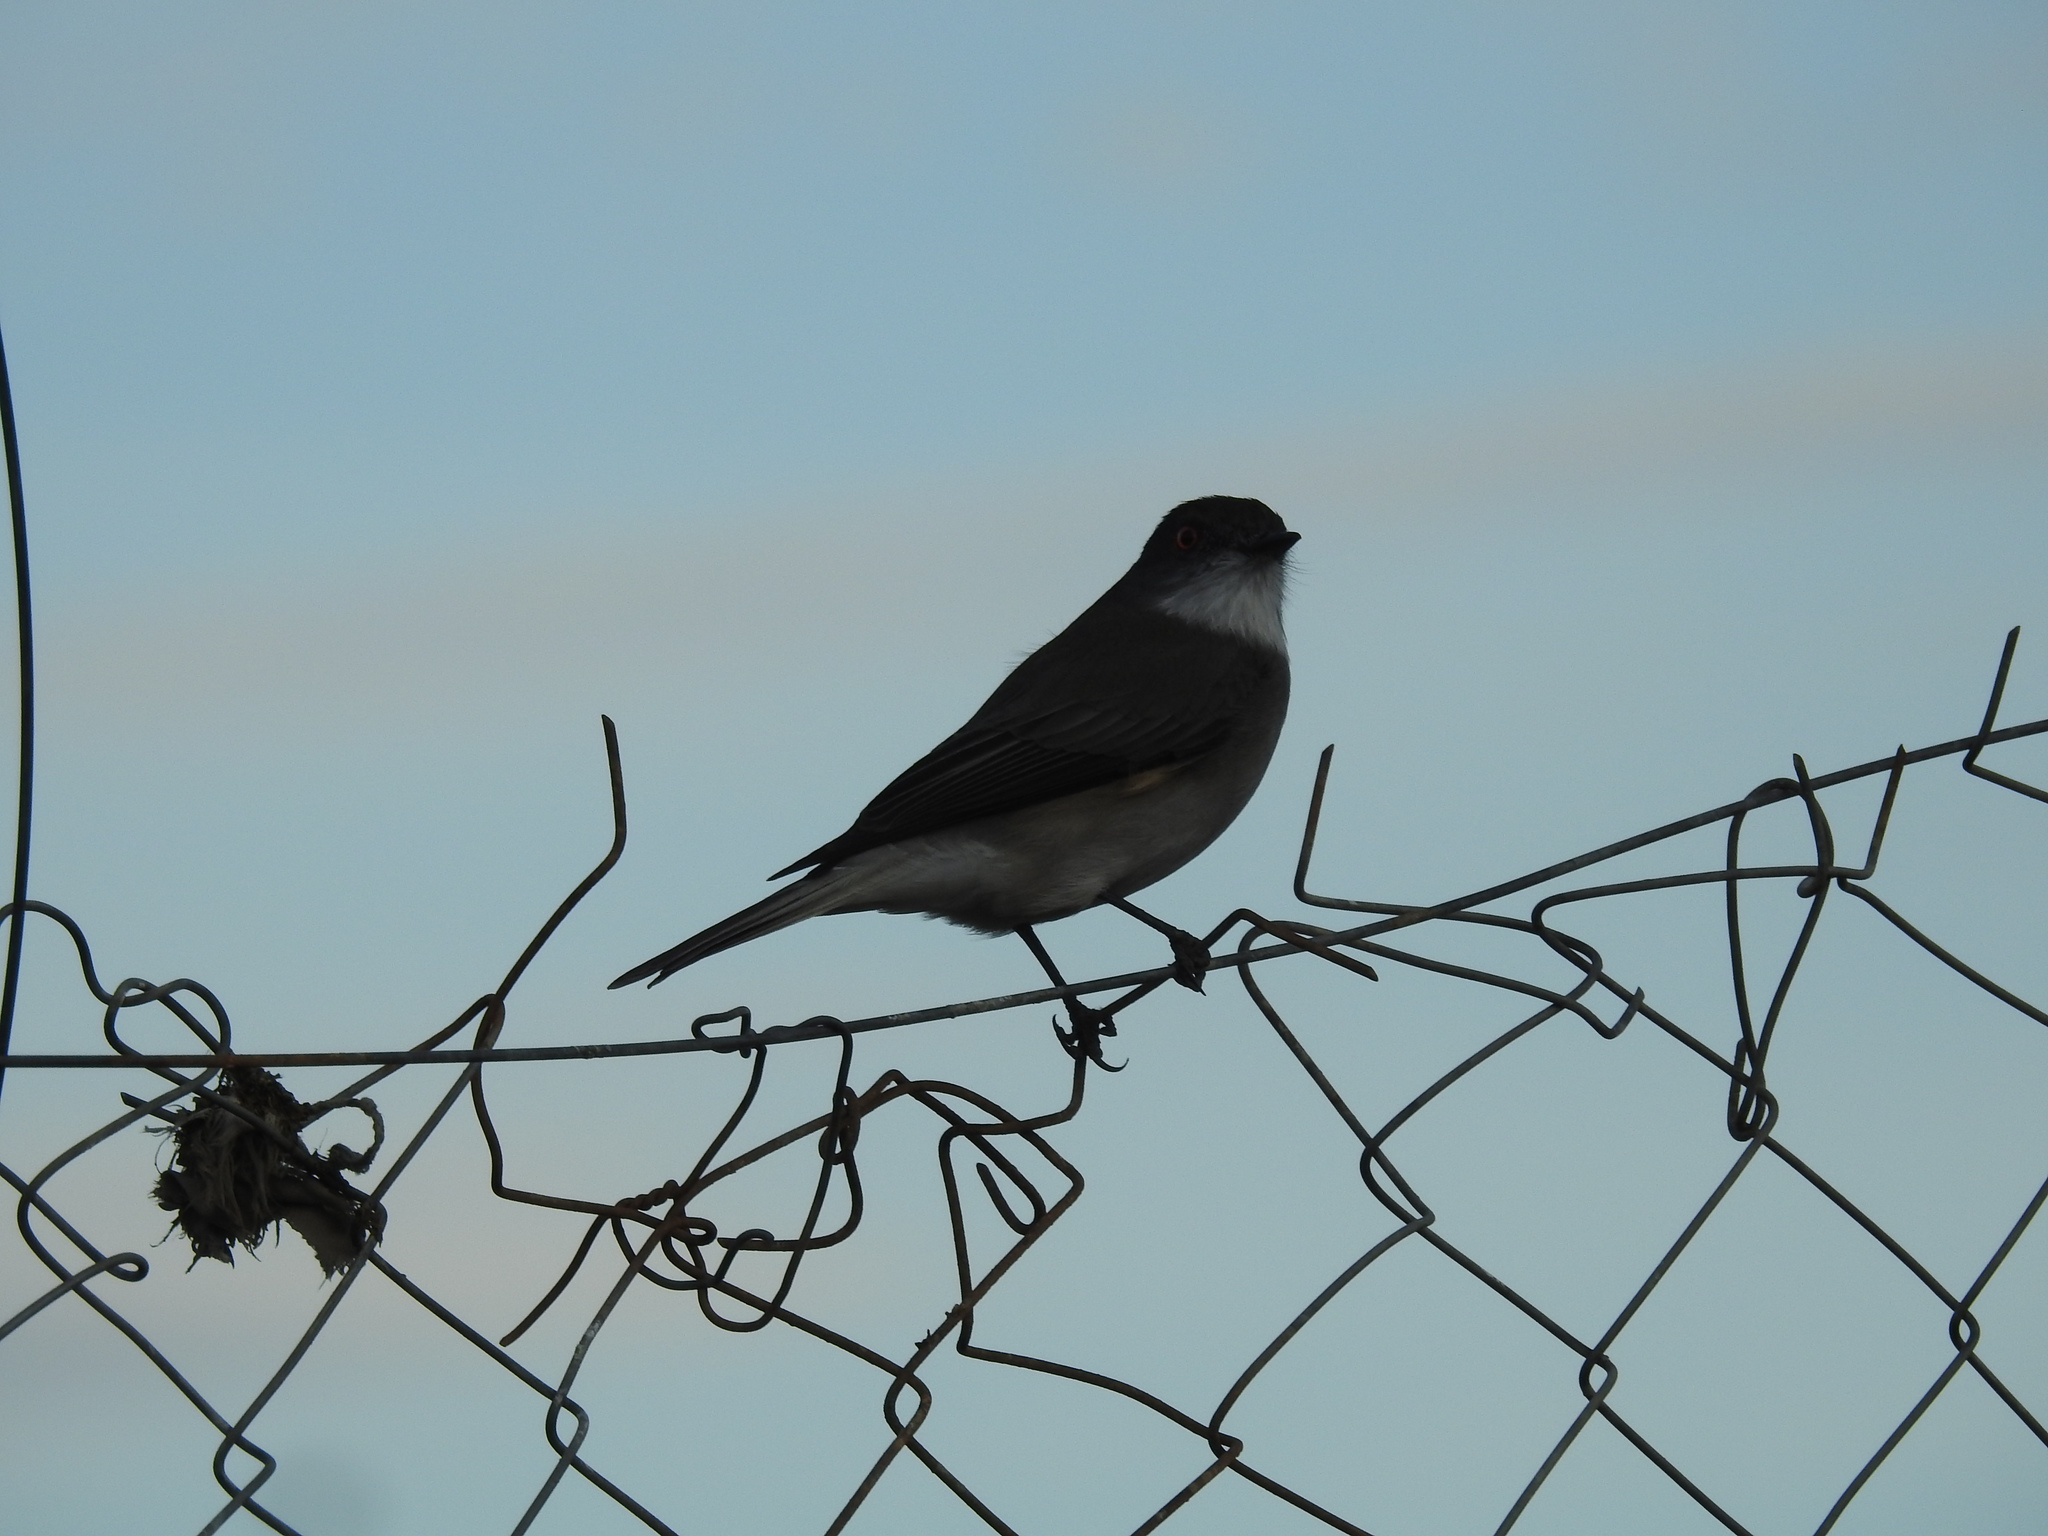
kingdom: Animalia
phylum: Chordata
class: Aves
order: Passeriformes
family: Tyrannidae
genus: Xolmis
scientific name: Xolmis pyrope
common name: Fire-eyed diucon
